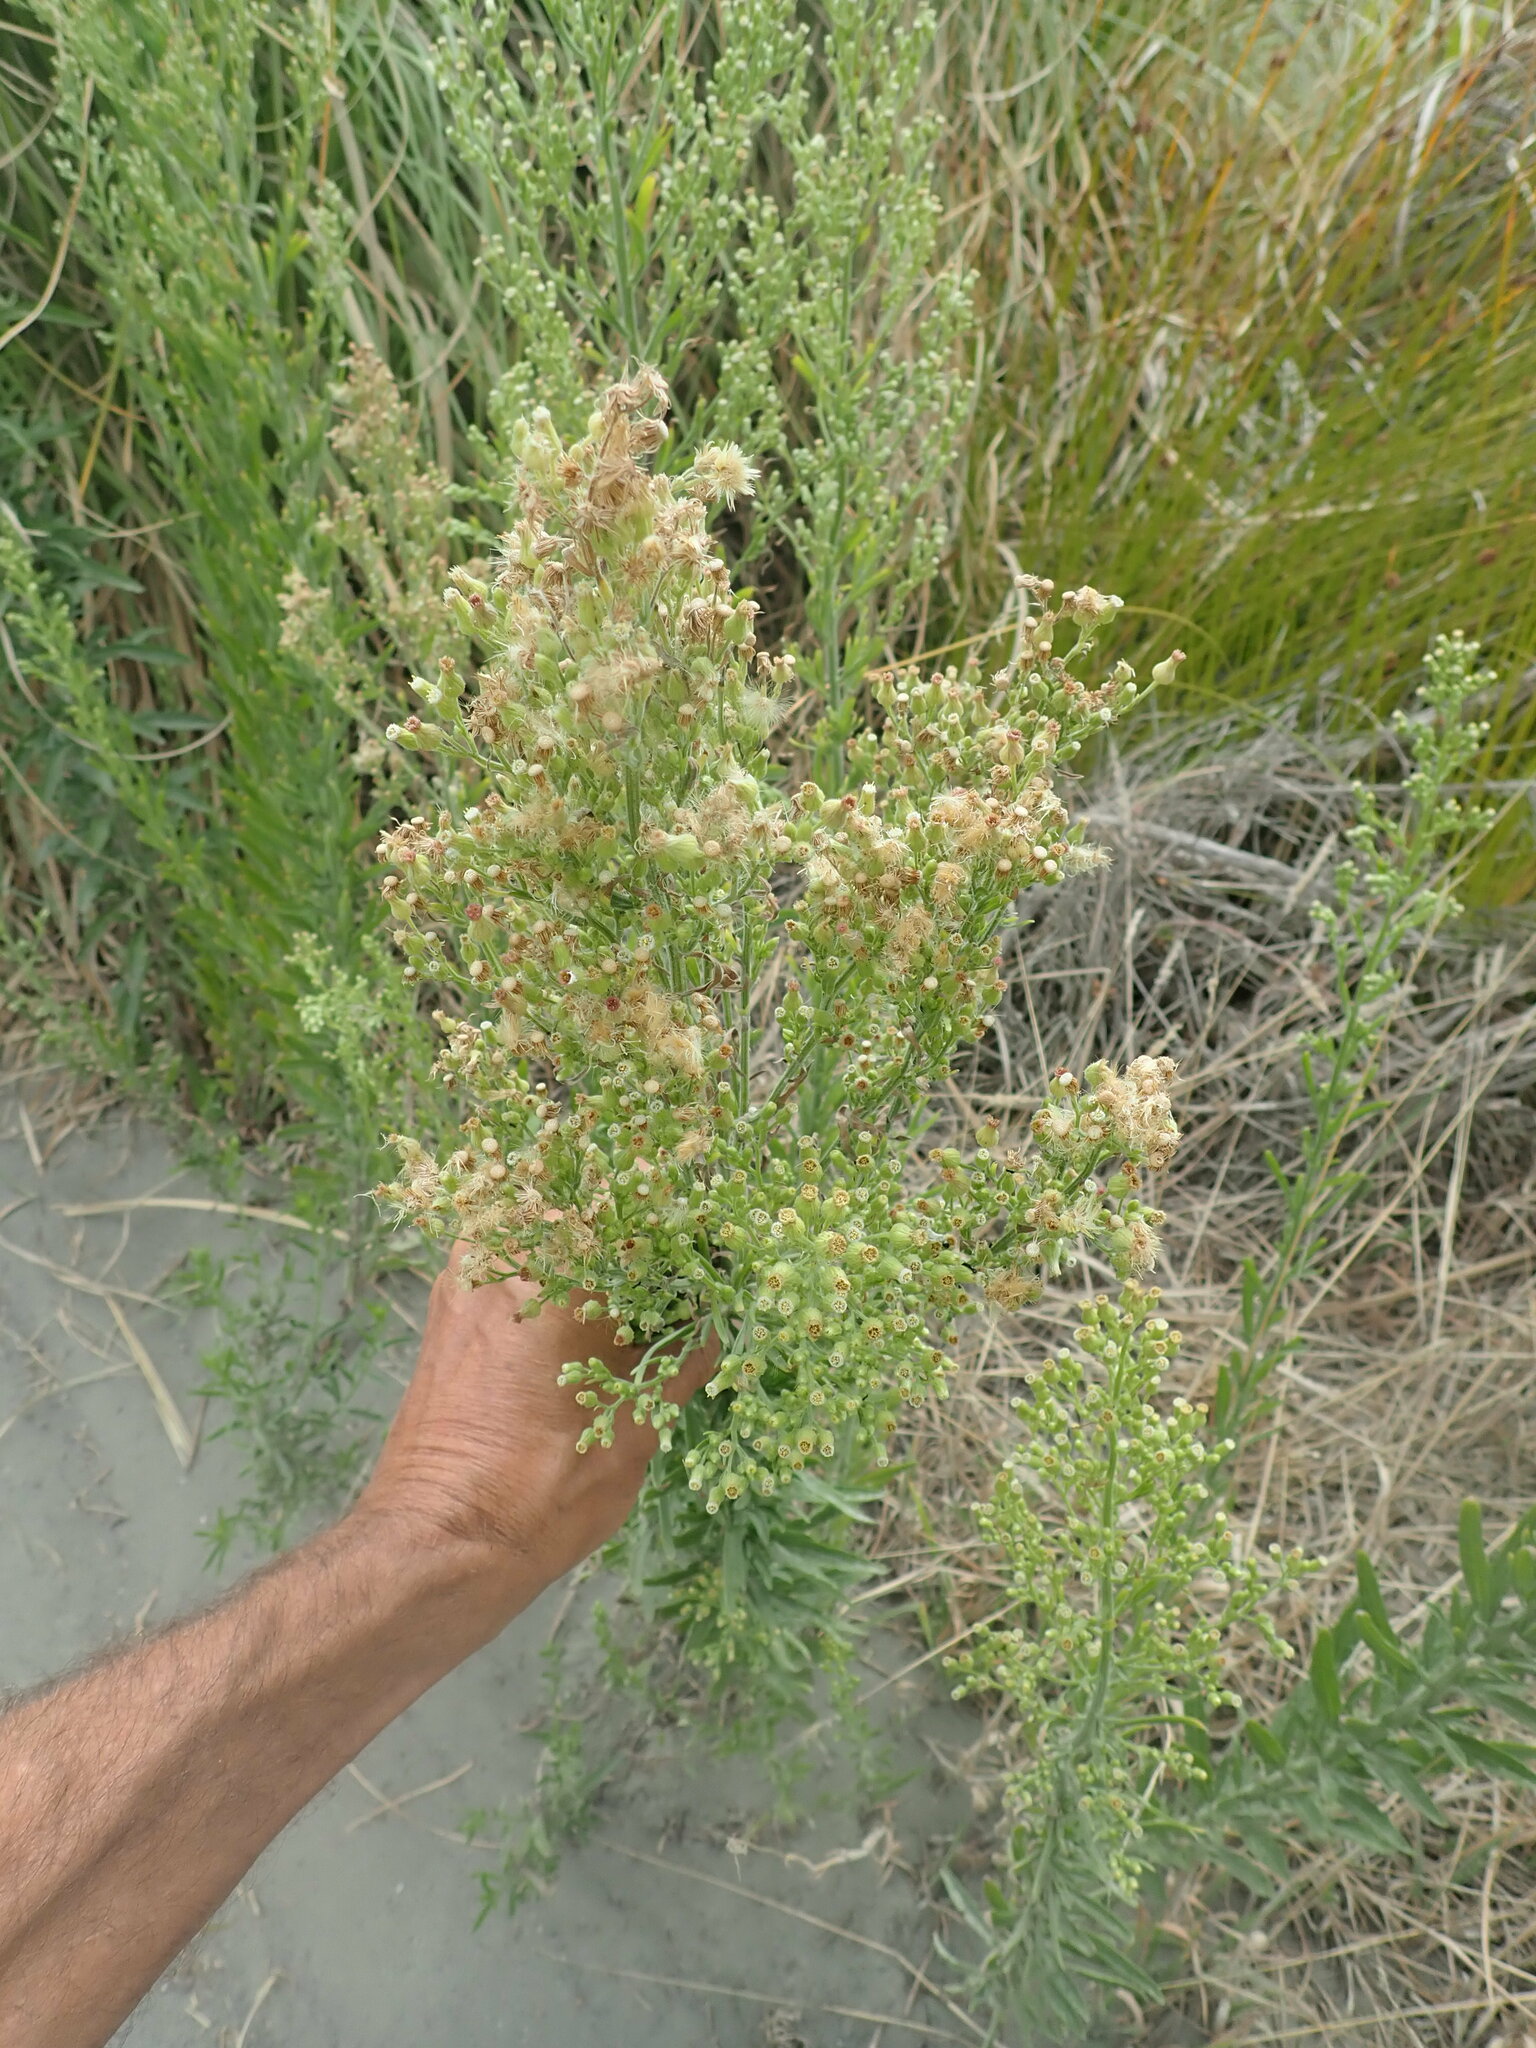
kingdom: Plantae
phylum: Tracheophyta
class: Magnoliopsida
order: Asterales
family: Asteraceae
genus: Erigeron
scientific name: Erigeron sumatrensis
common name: Daisy
